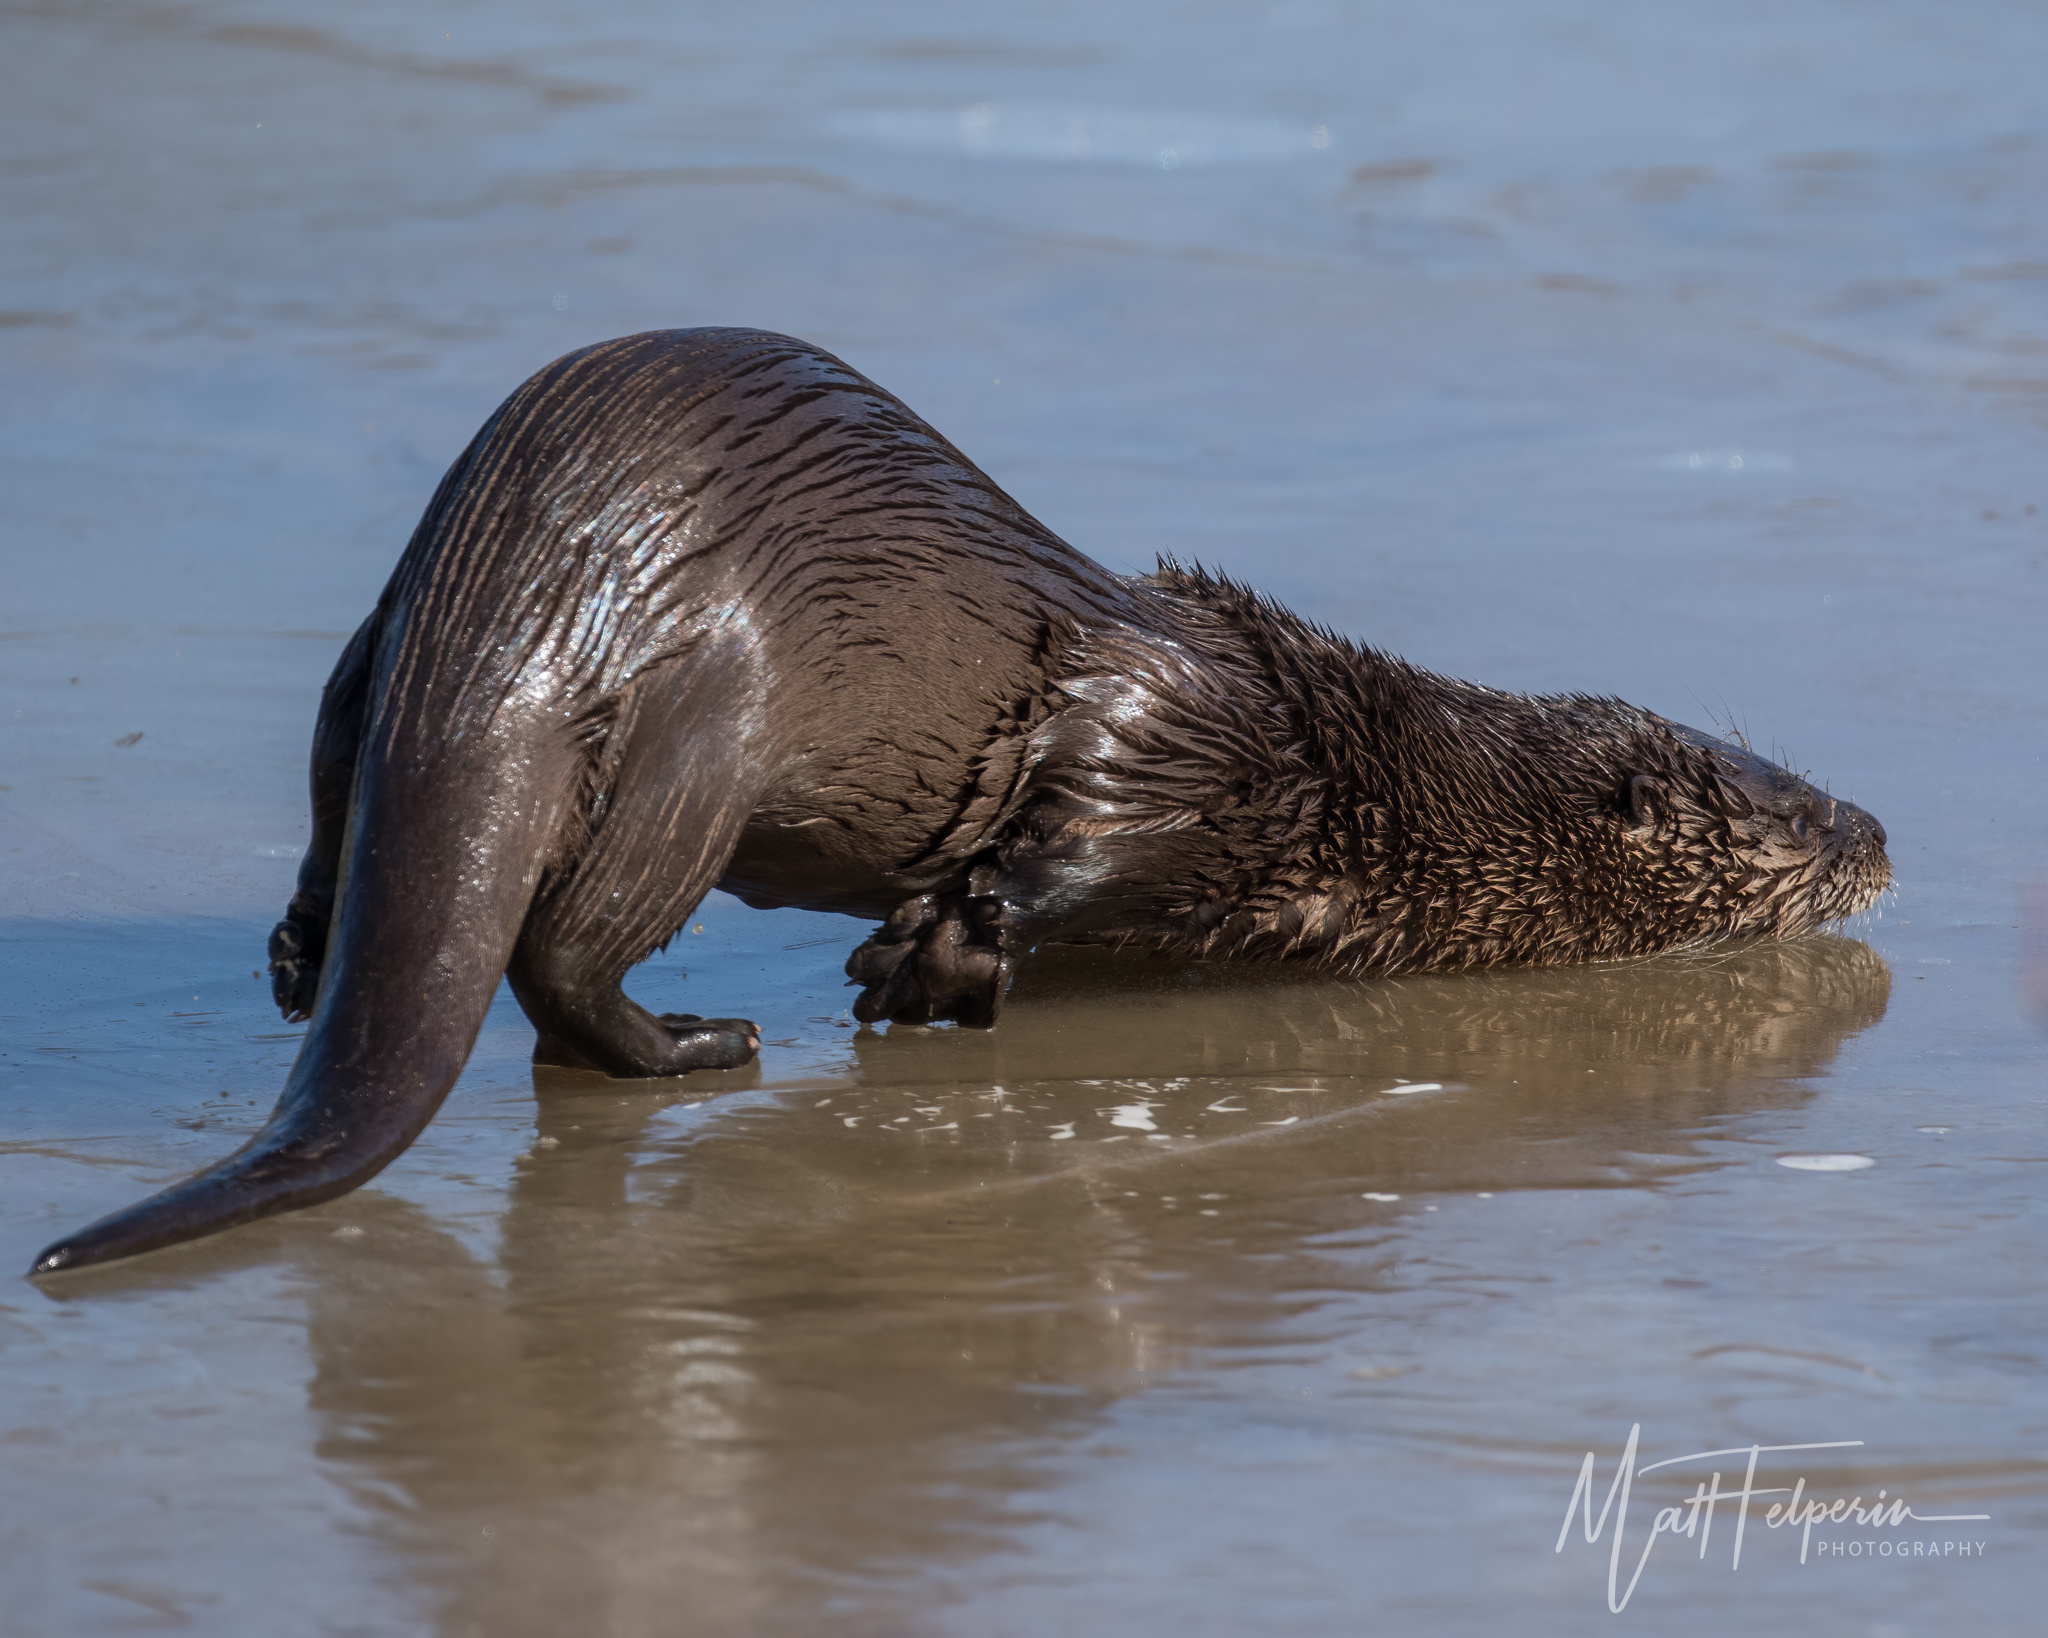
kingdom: Animalia
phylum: Chordata
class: Mammalia
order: Carnivora
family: Mustelidae
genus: Lontra
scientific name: Lontra canadensis
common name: North american river otter
